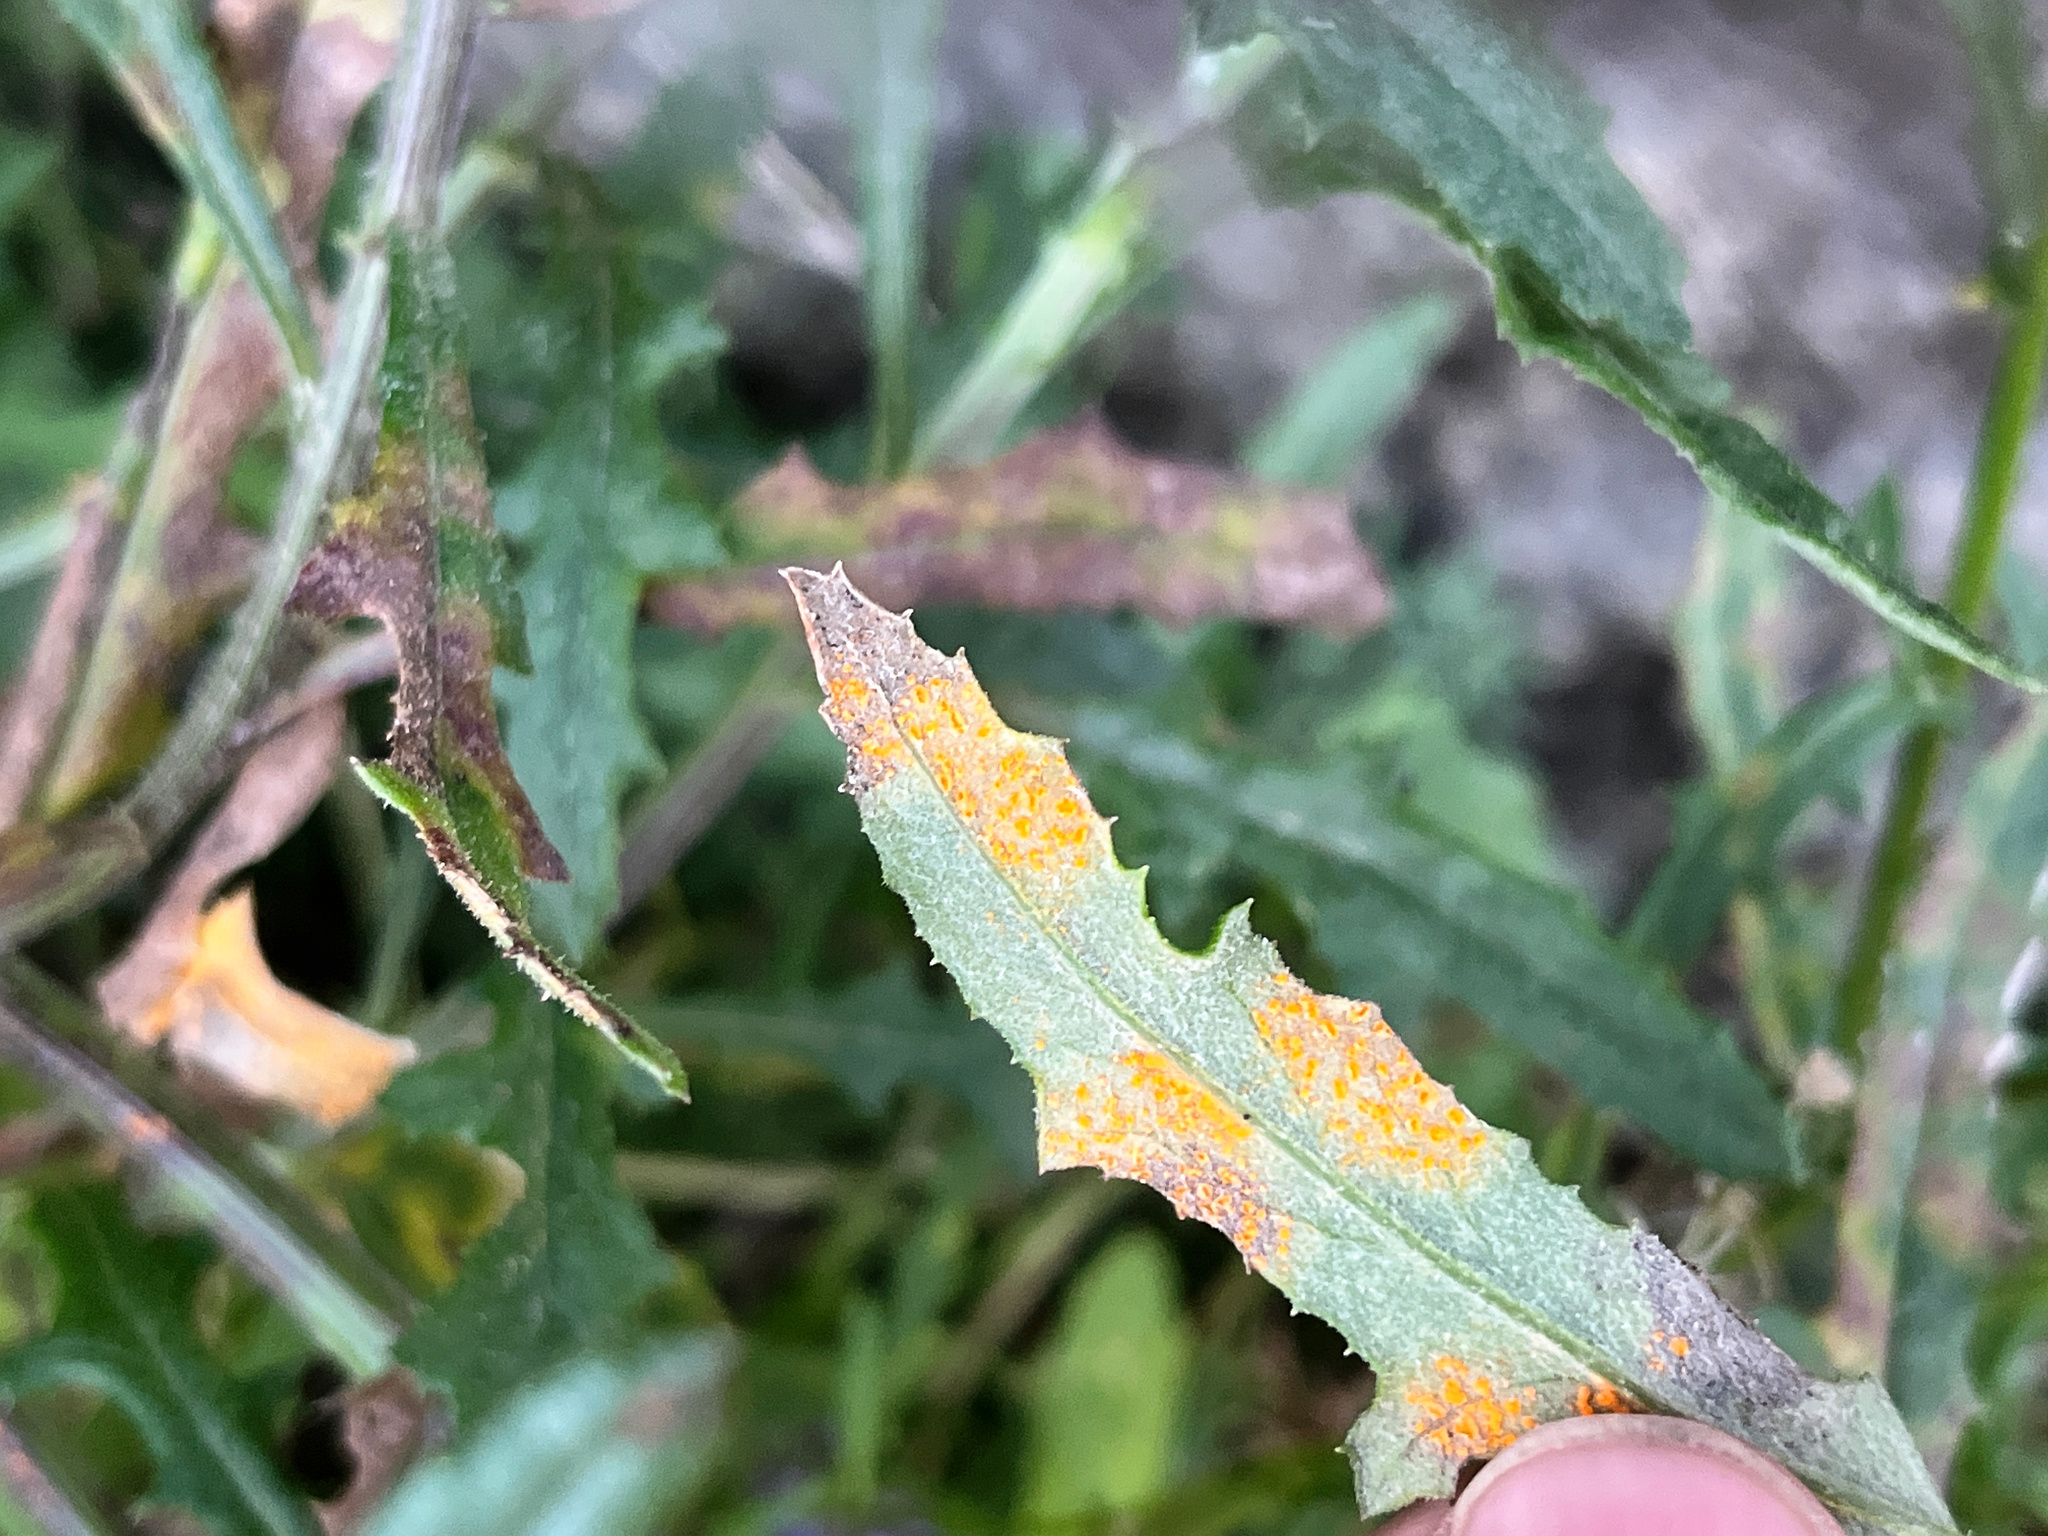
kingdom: Fungi
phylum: Basidiomycota
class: Pucciniomycetes
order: Pucciniales
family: Coleosporiaceae
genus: Coleosporium
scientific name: Coleosporium tussilaginis
